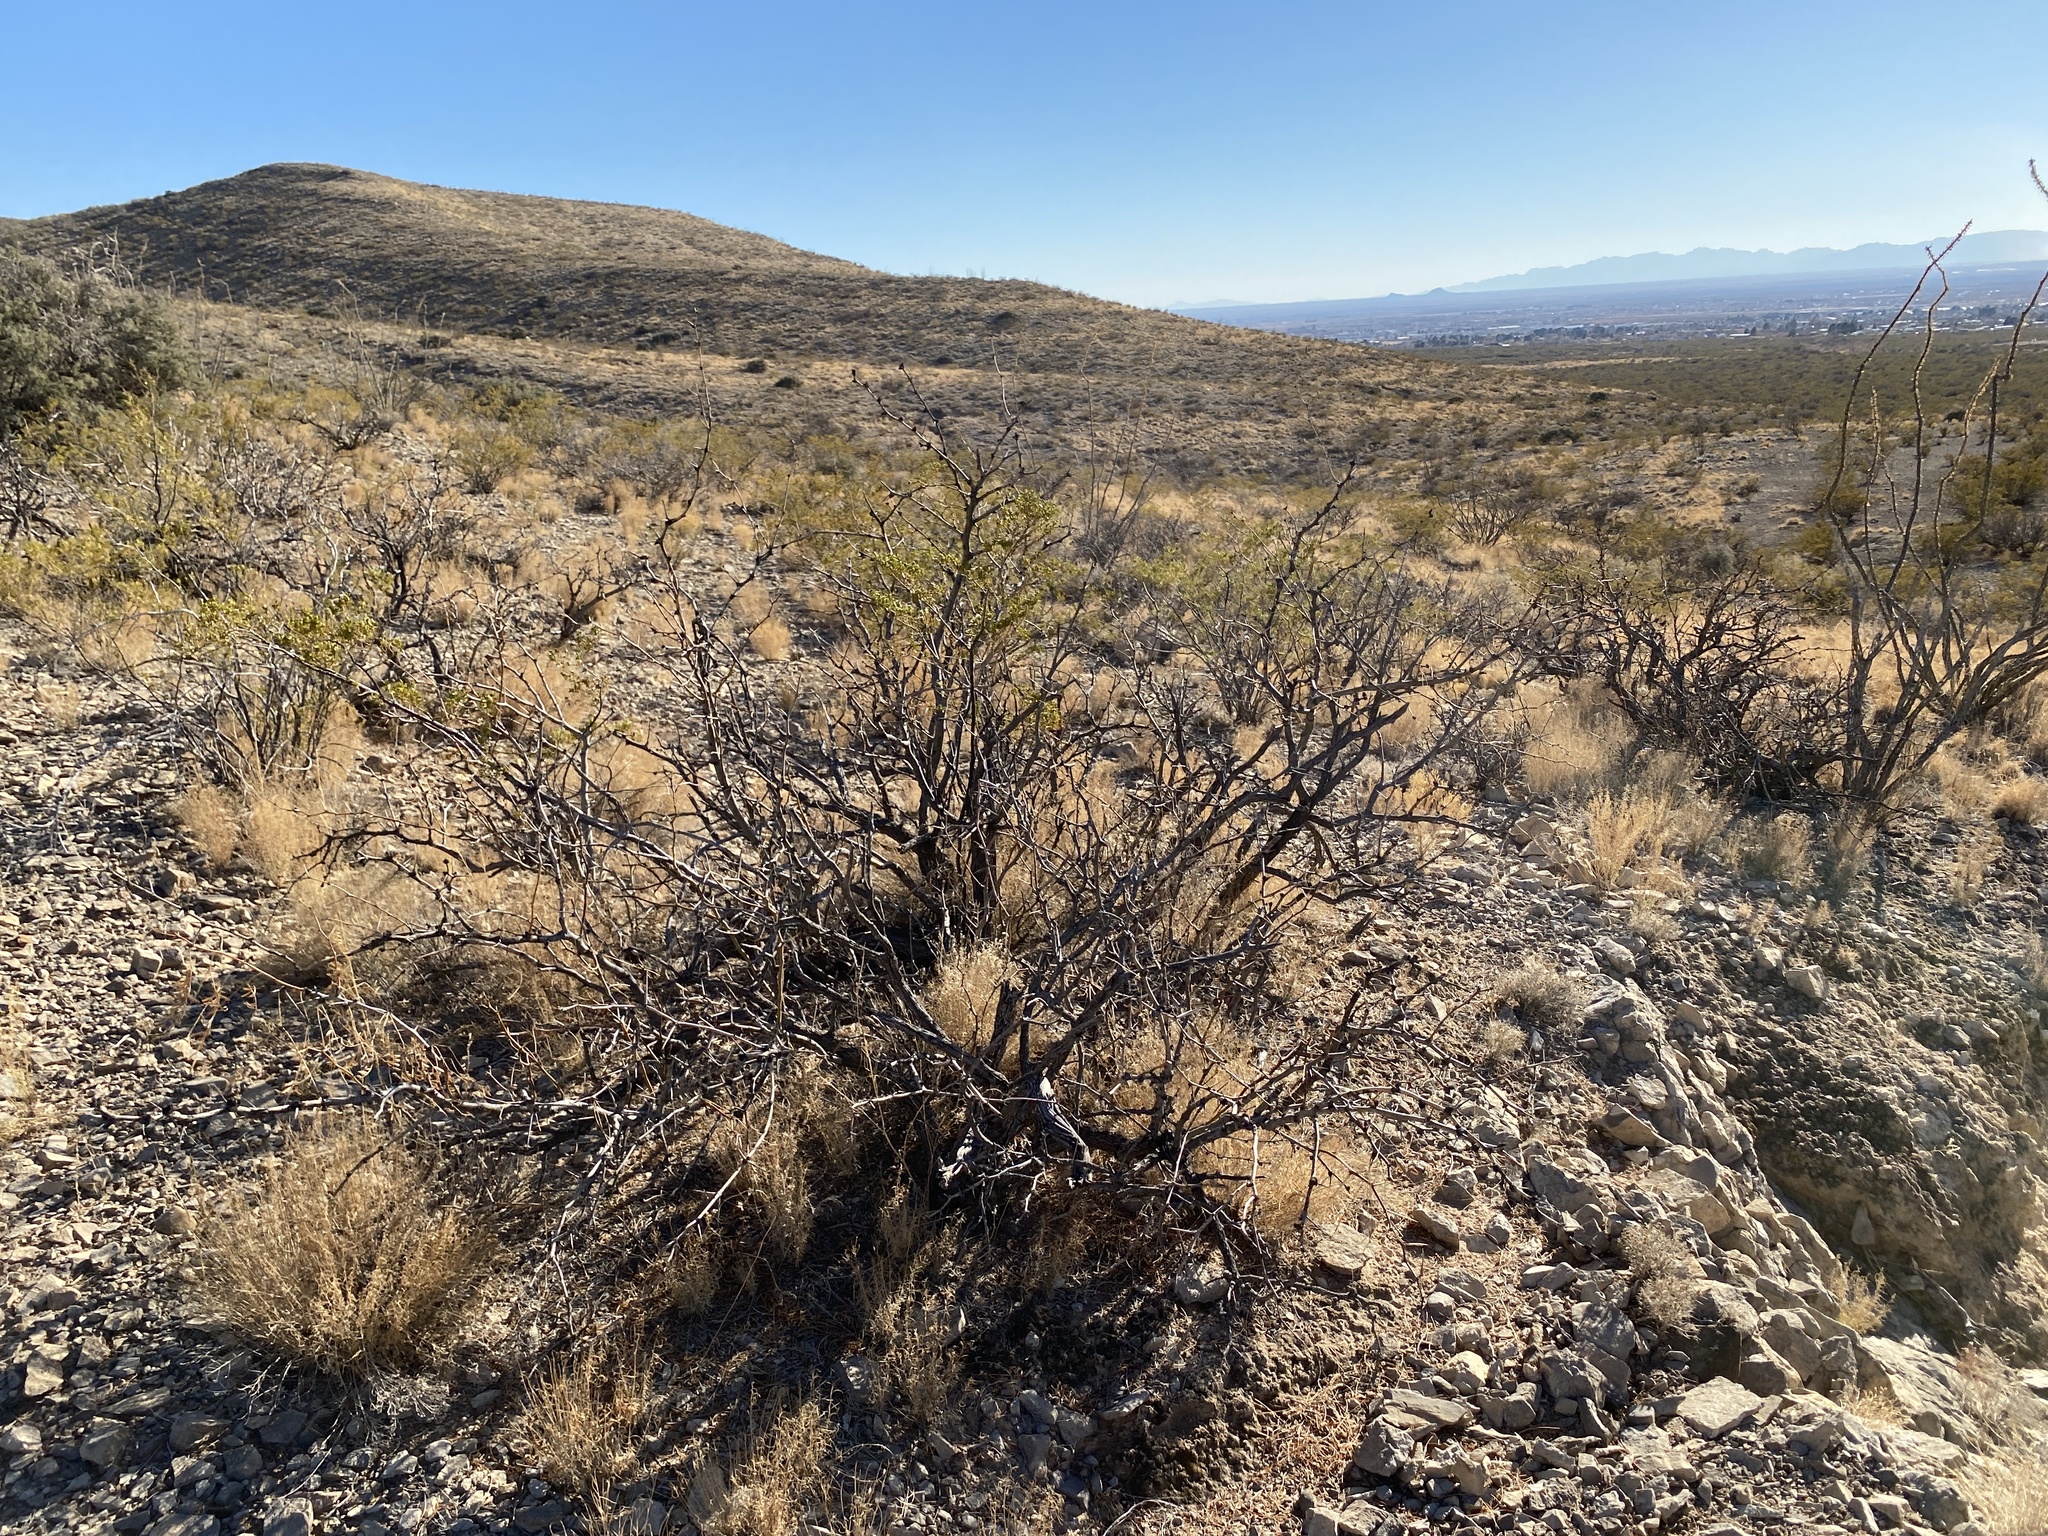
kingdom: Plantae
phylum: Tracheophyta
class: Magnoliopsida
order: Zygophyllales
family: Zygophyllaceae
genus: Larrea
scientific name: Larrea tridentata
